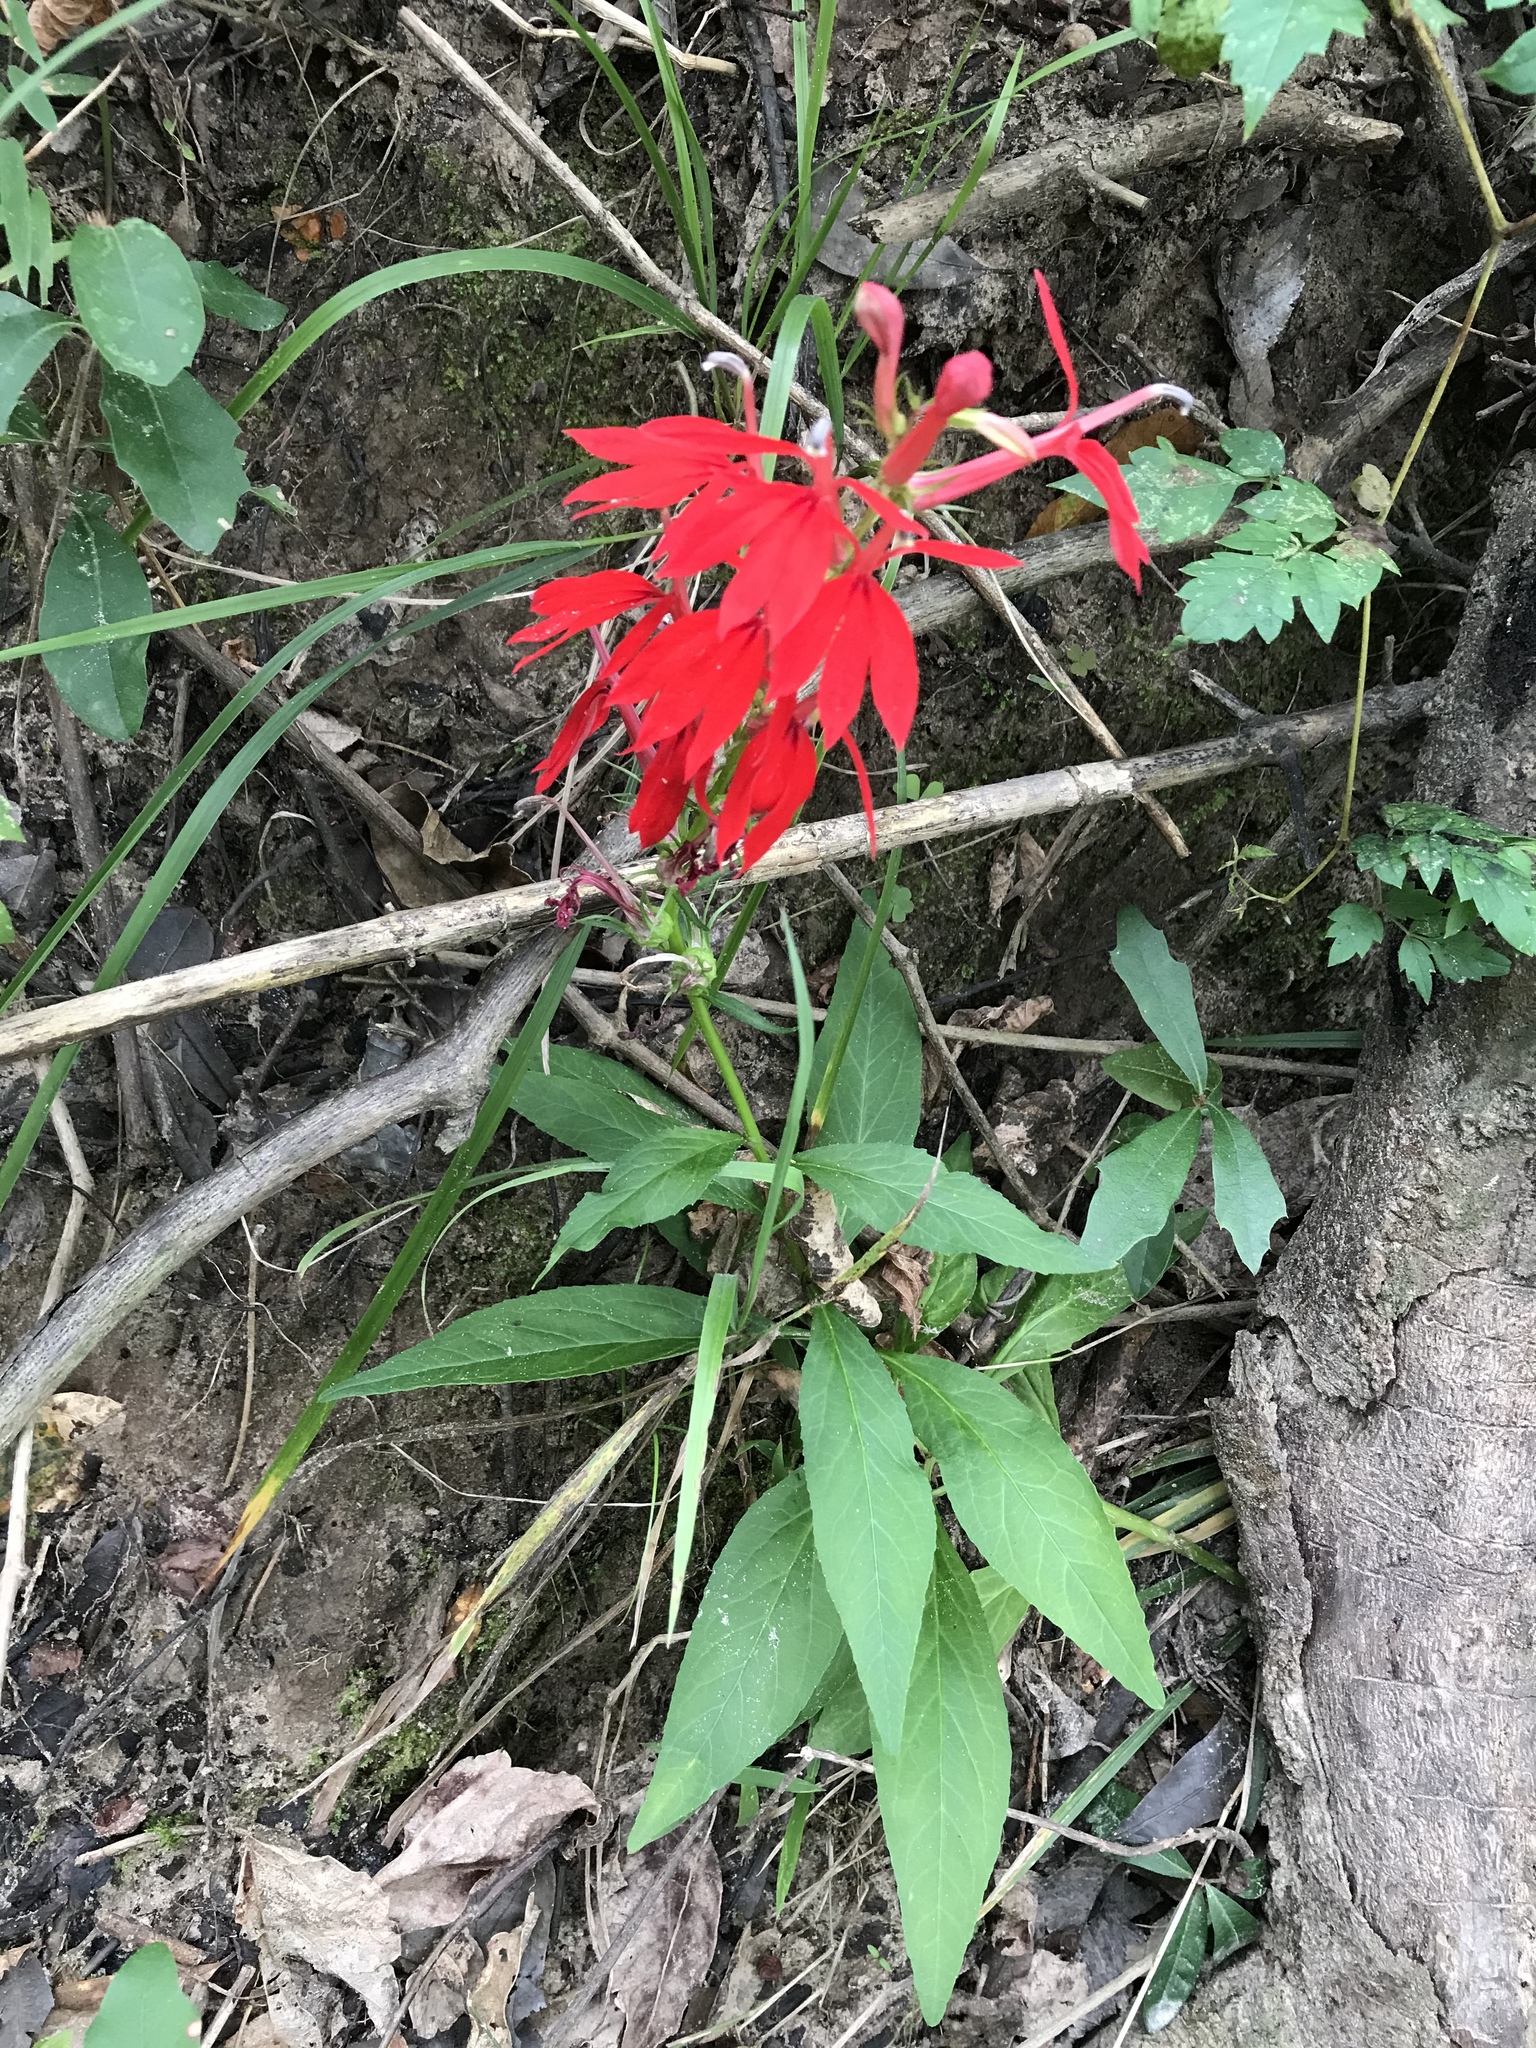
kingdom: Plantae
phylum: Tracheophyta
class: Magnoliopsida
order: Asterales
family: Campanulaceae
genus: Lobelia
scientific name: Lobelia cardinalis
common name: Cardinal flower
